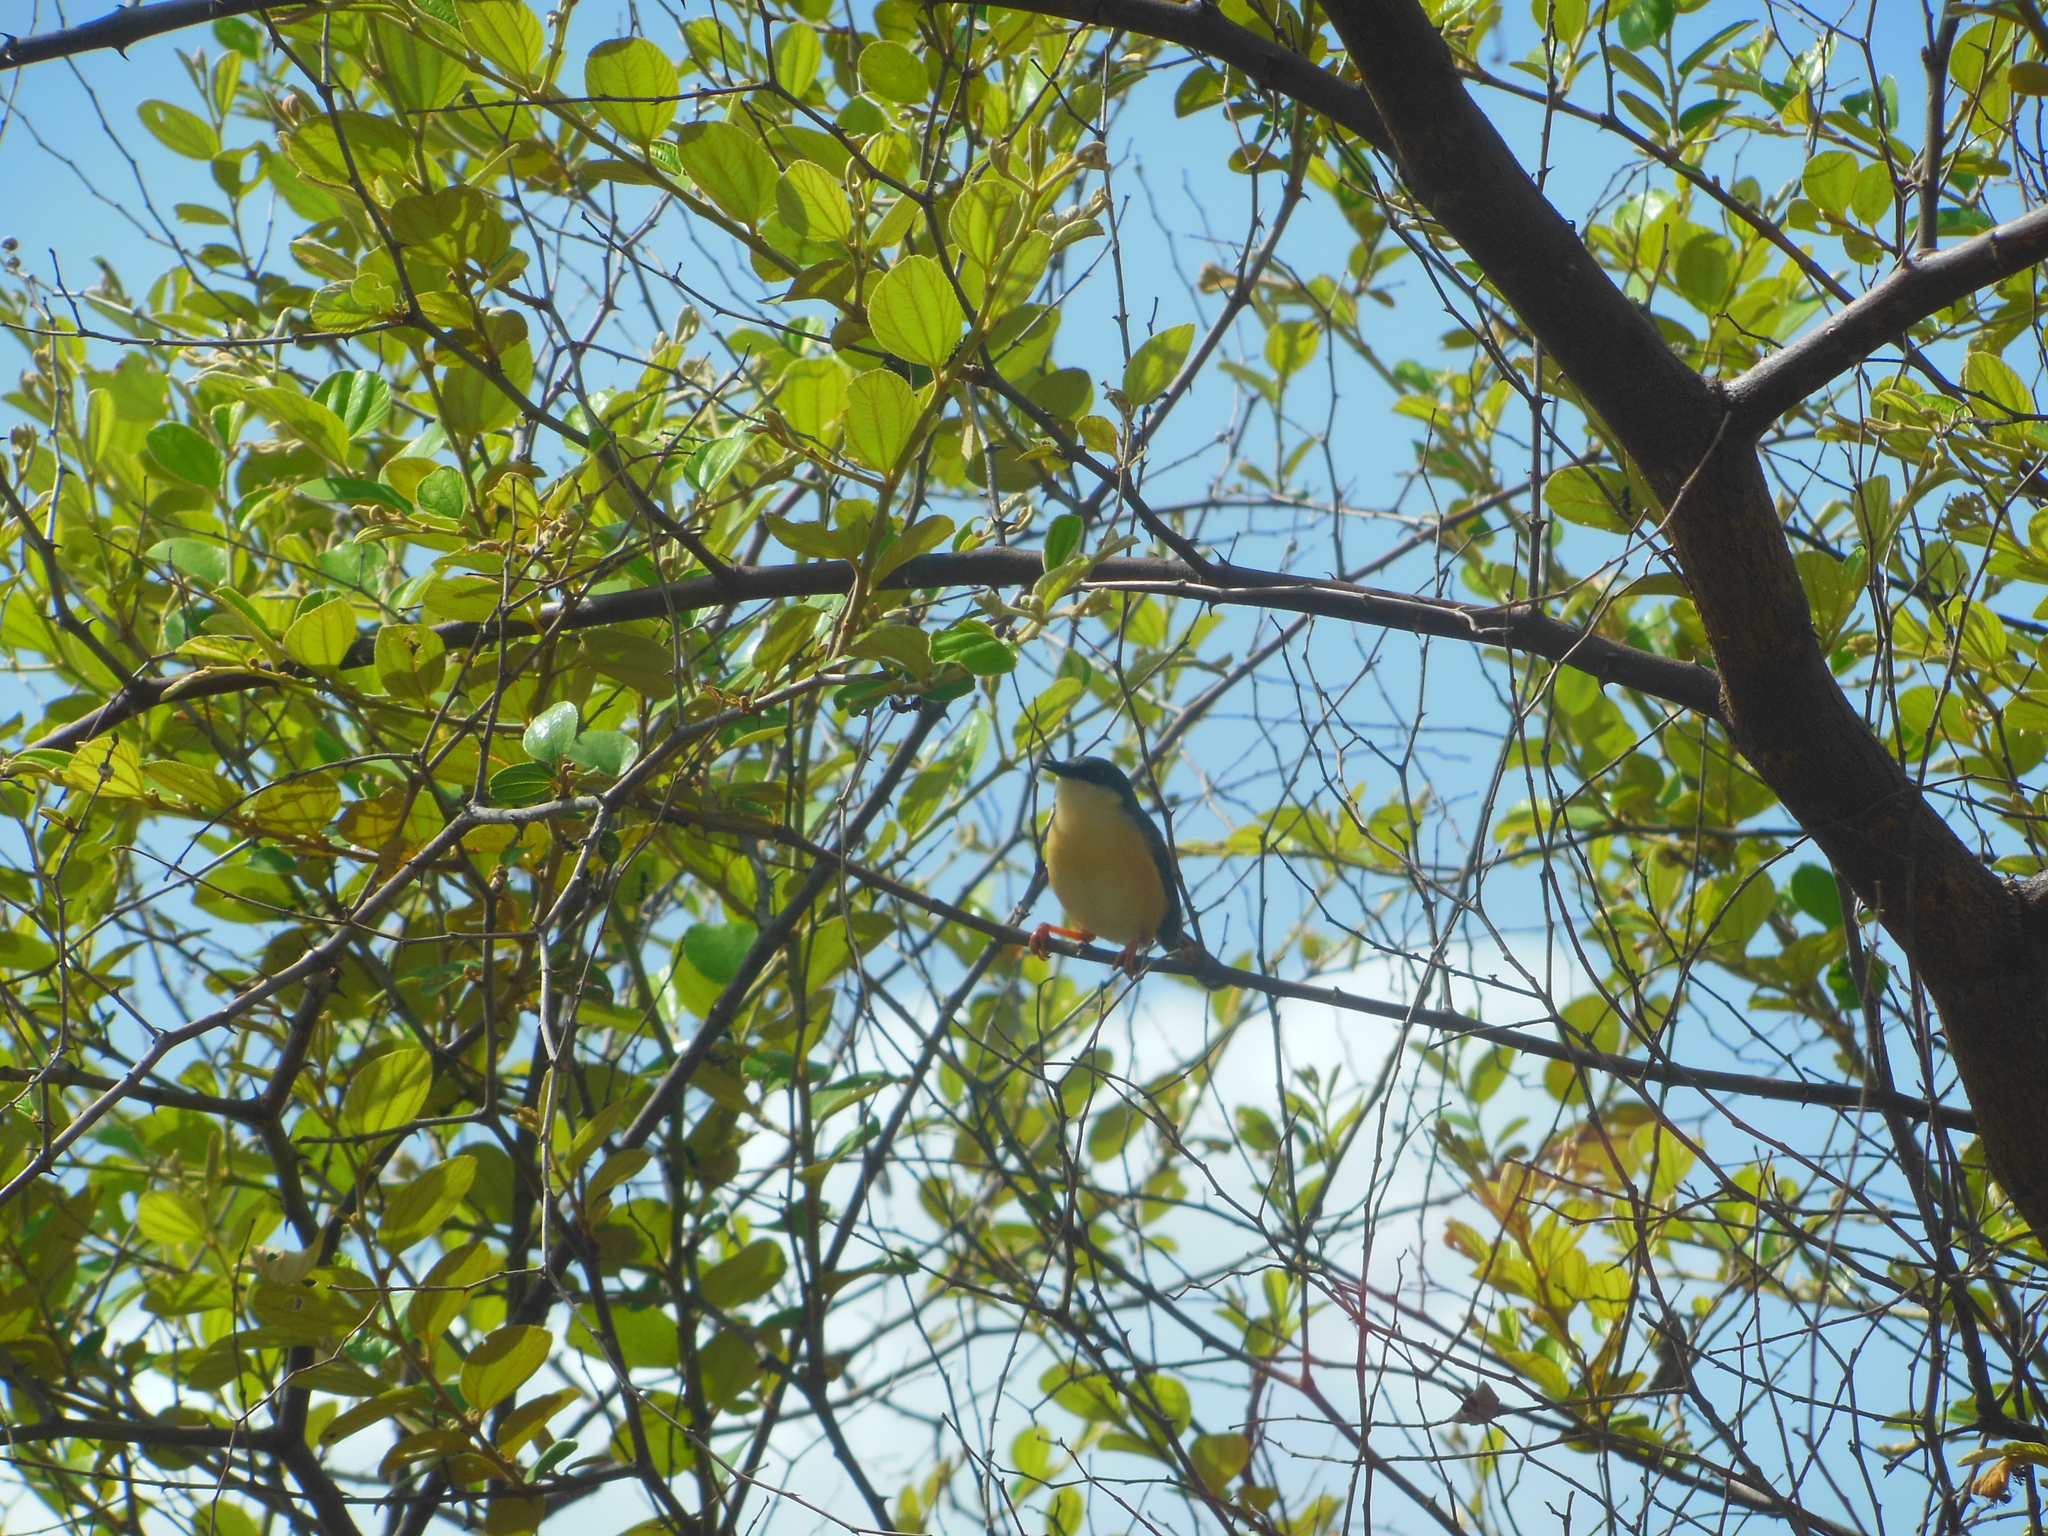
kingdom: Animalia
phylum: Chordata
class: Aves
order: Passeriformes
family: Cisticolidae
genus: Prinia
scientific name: Prinia socialis
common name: Ashy prinia
